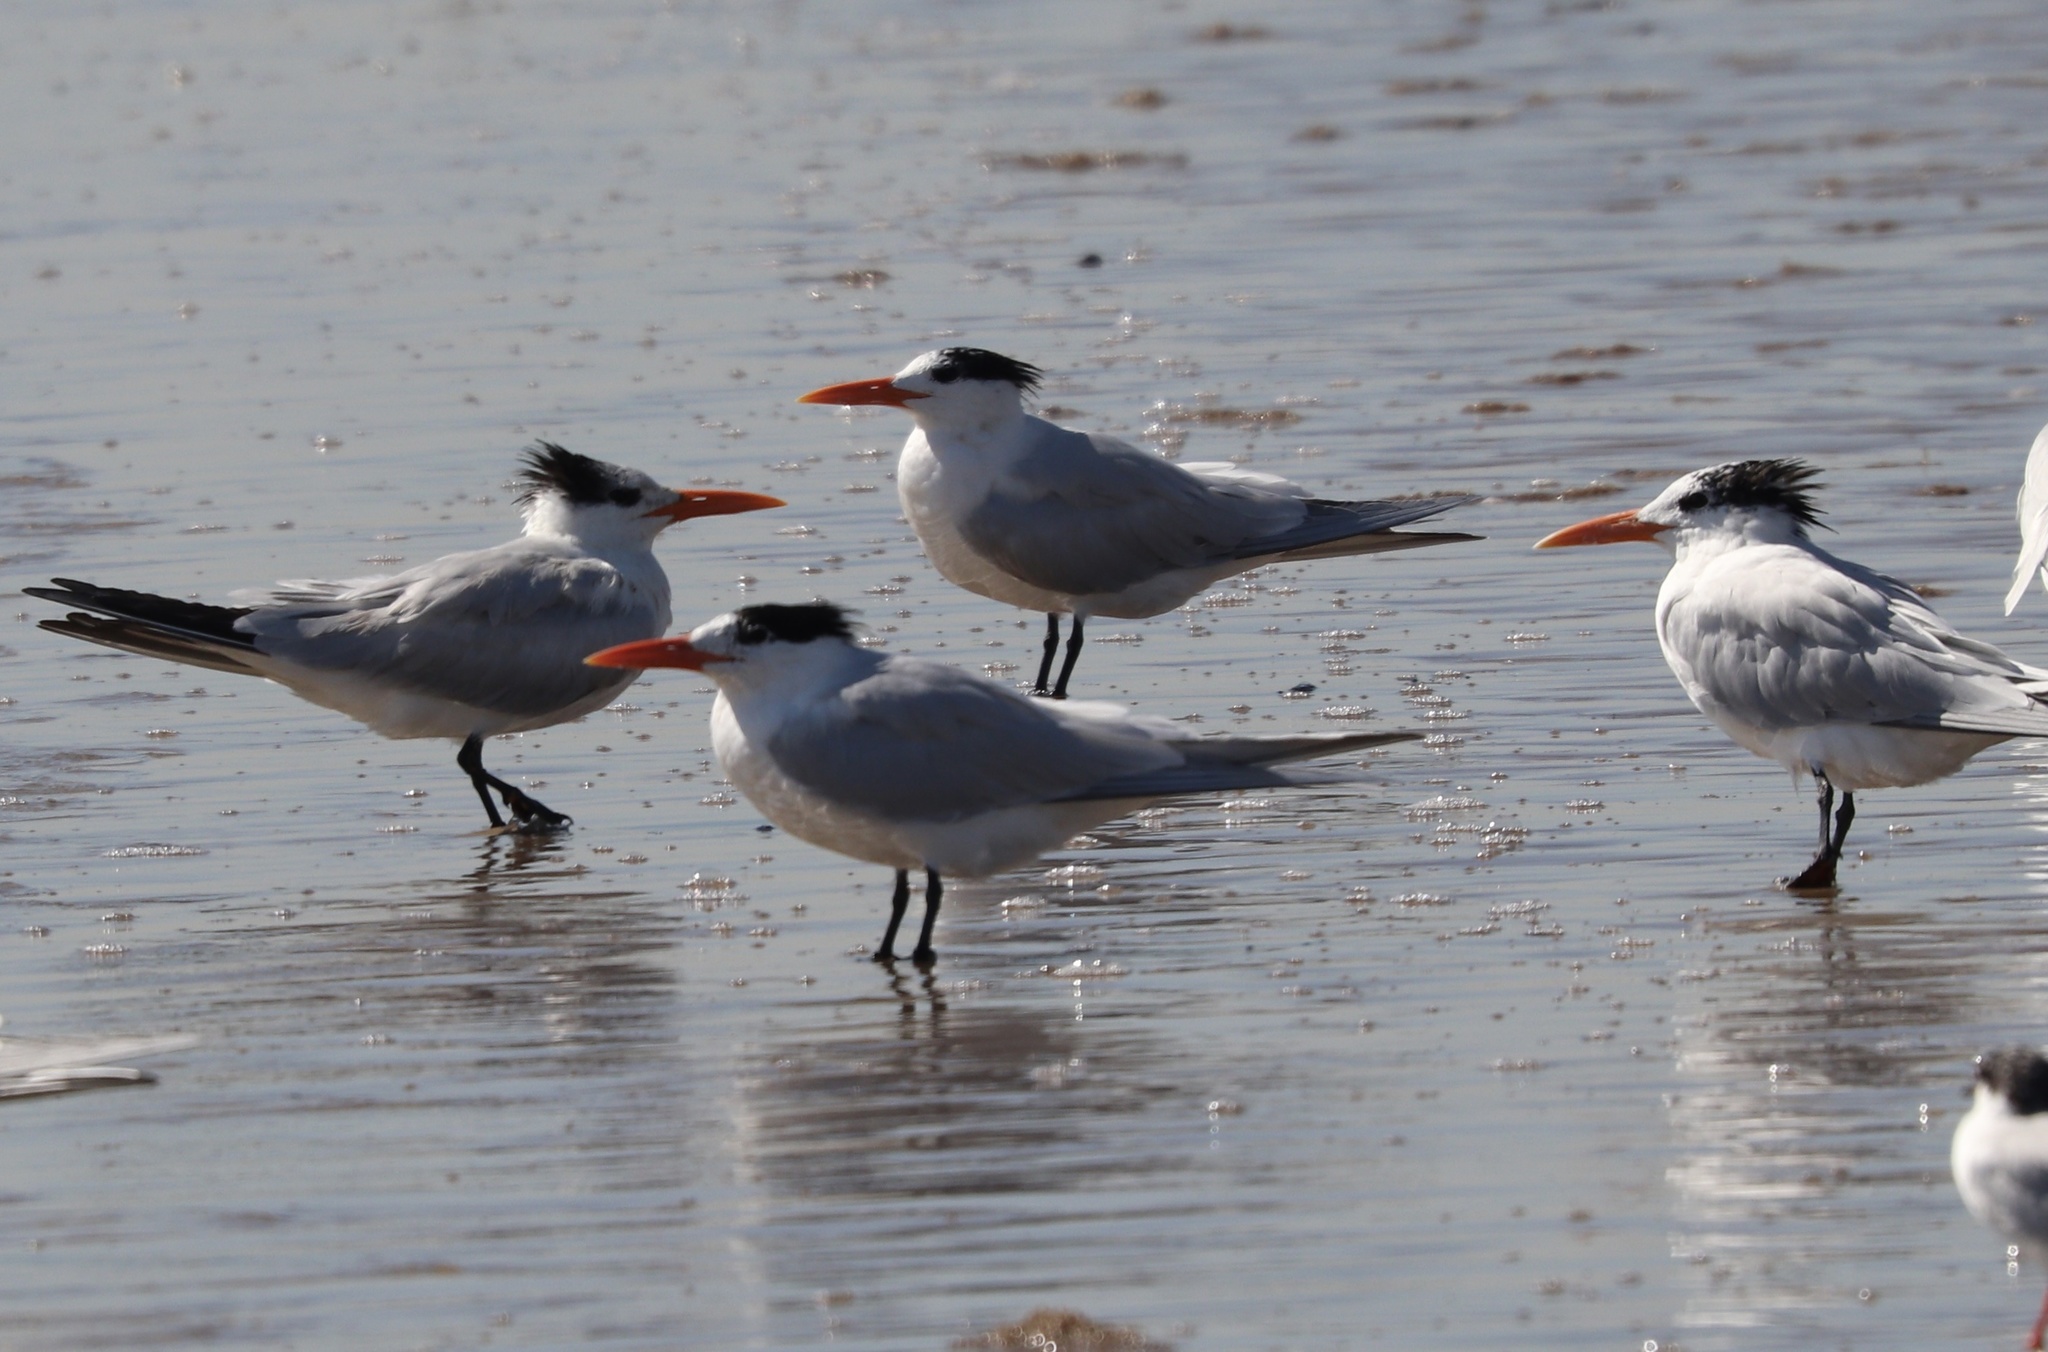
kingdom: Animalia
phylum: Chordata
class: Aves
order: Charadriiformes
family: Laridae
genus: Thalasseus
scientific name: Thalasseus maximus
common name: Royal tern
